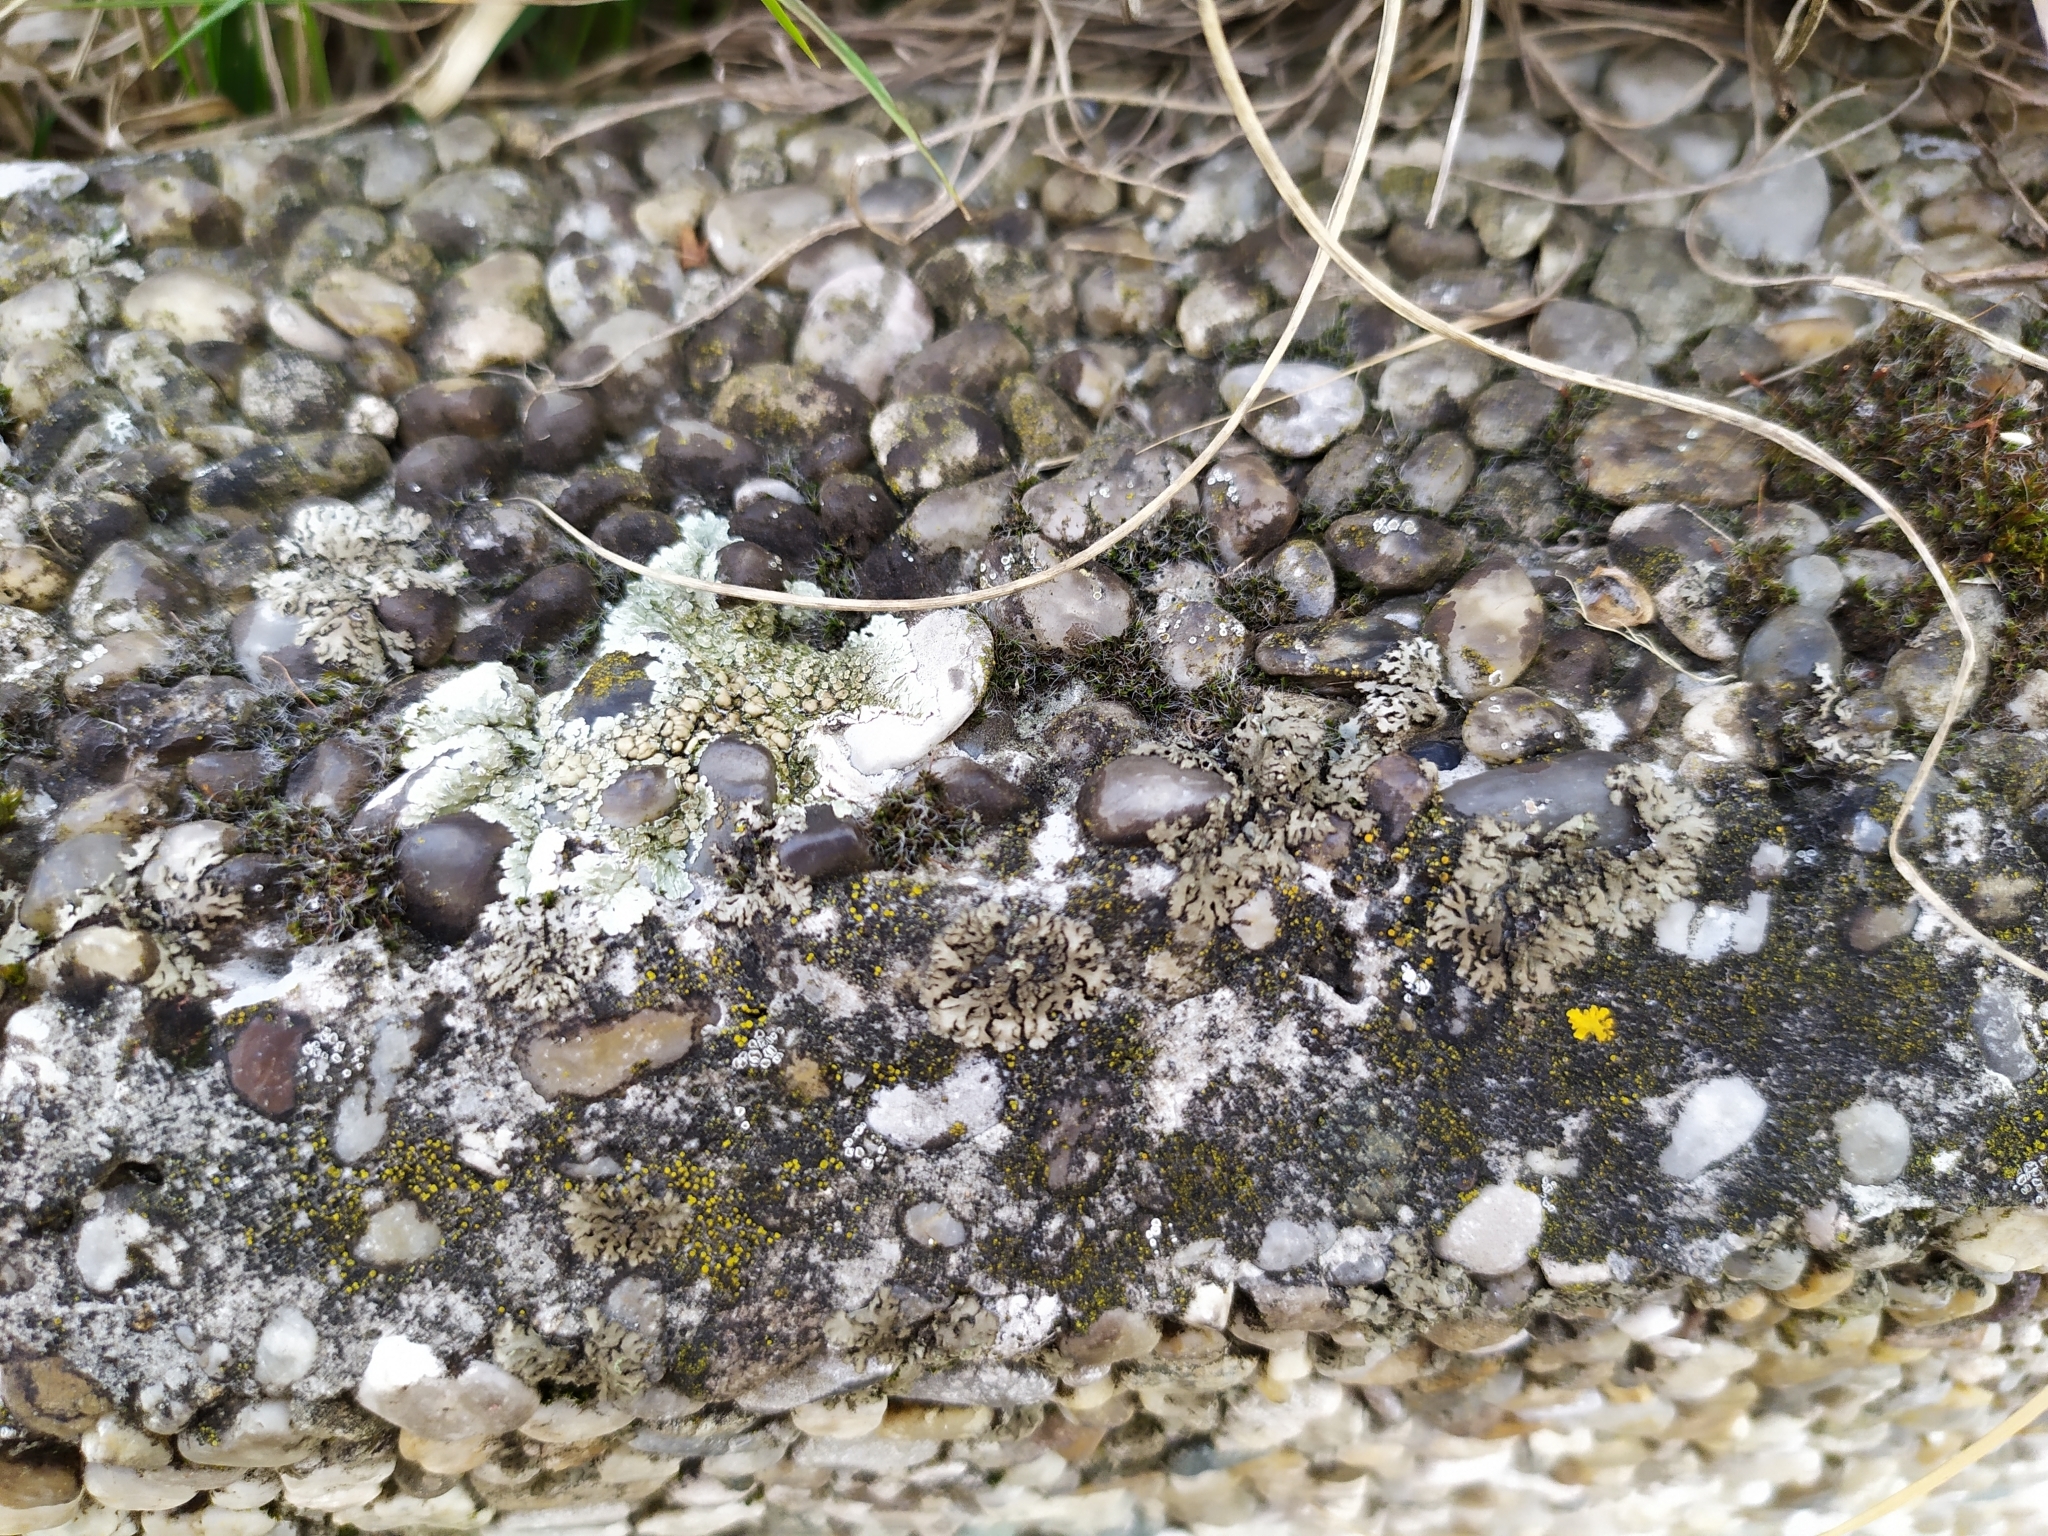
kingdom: Fungi
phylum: Ascomycota
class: Lecanoromycetes
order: Caliciales
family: Physciaceae
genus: Phaeophyscia
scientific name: Phaeophyscia orbicularis
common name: Mealy shadow lichen
